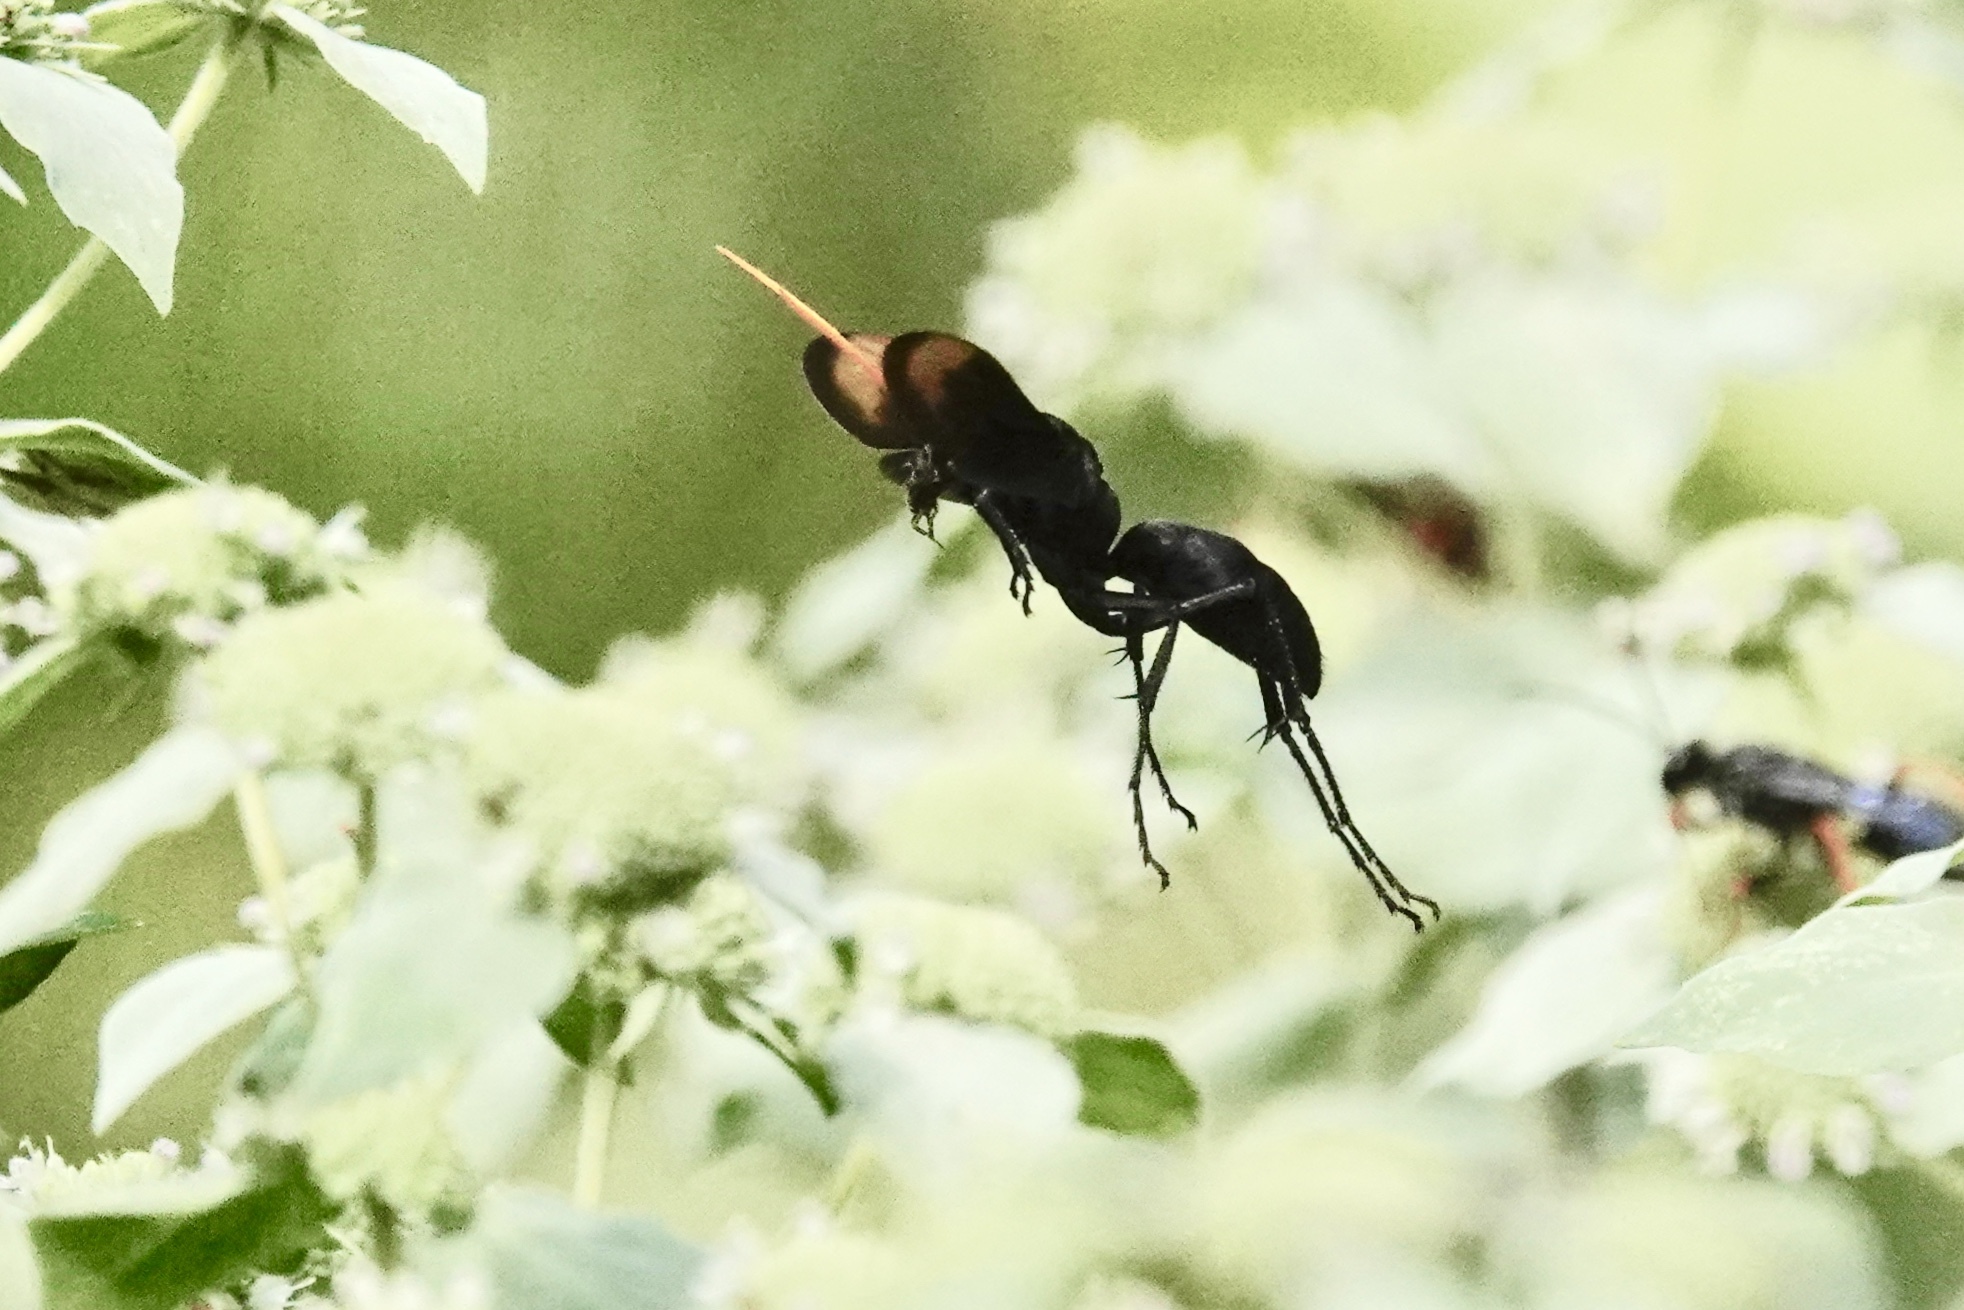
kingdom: Animalia
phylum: Arthropoda
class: Insecta
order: Hymenoptera
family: Pompilidae
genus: Entypus
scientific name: Entypus unifasciatus
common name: Eastern tawny-horned spider wasp
